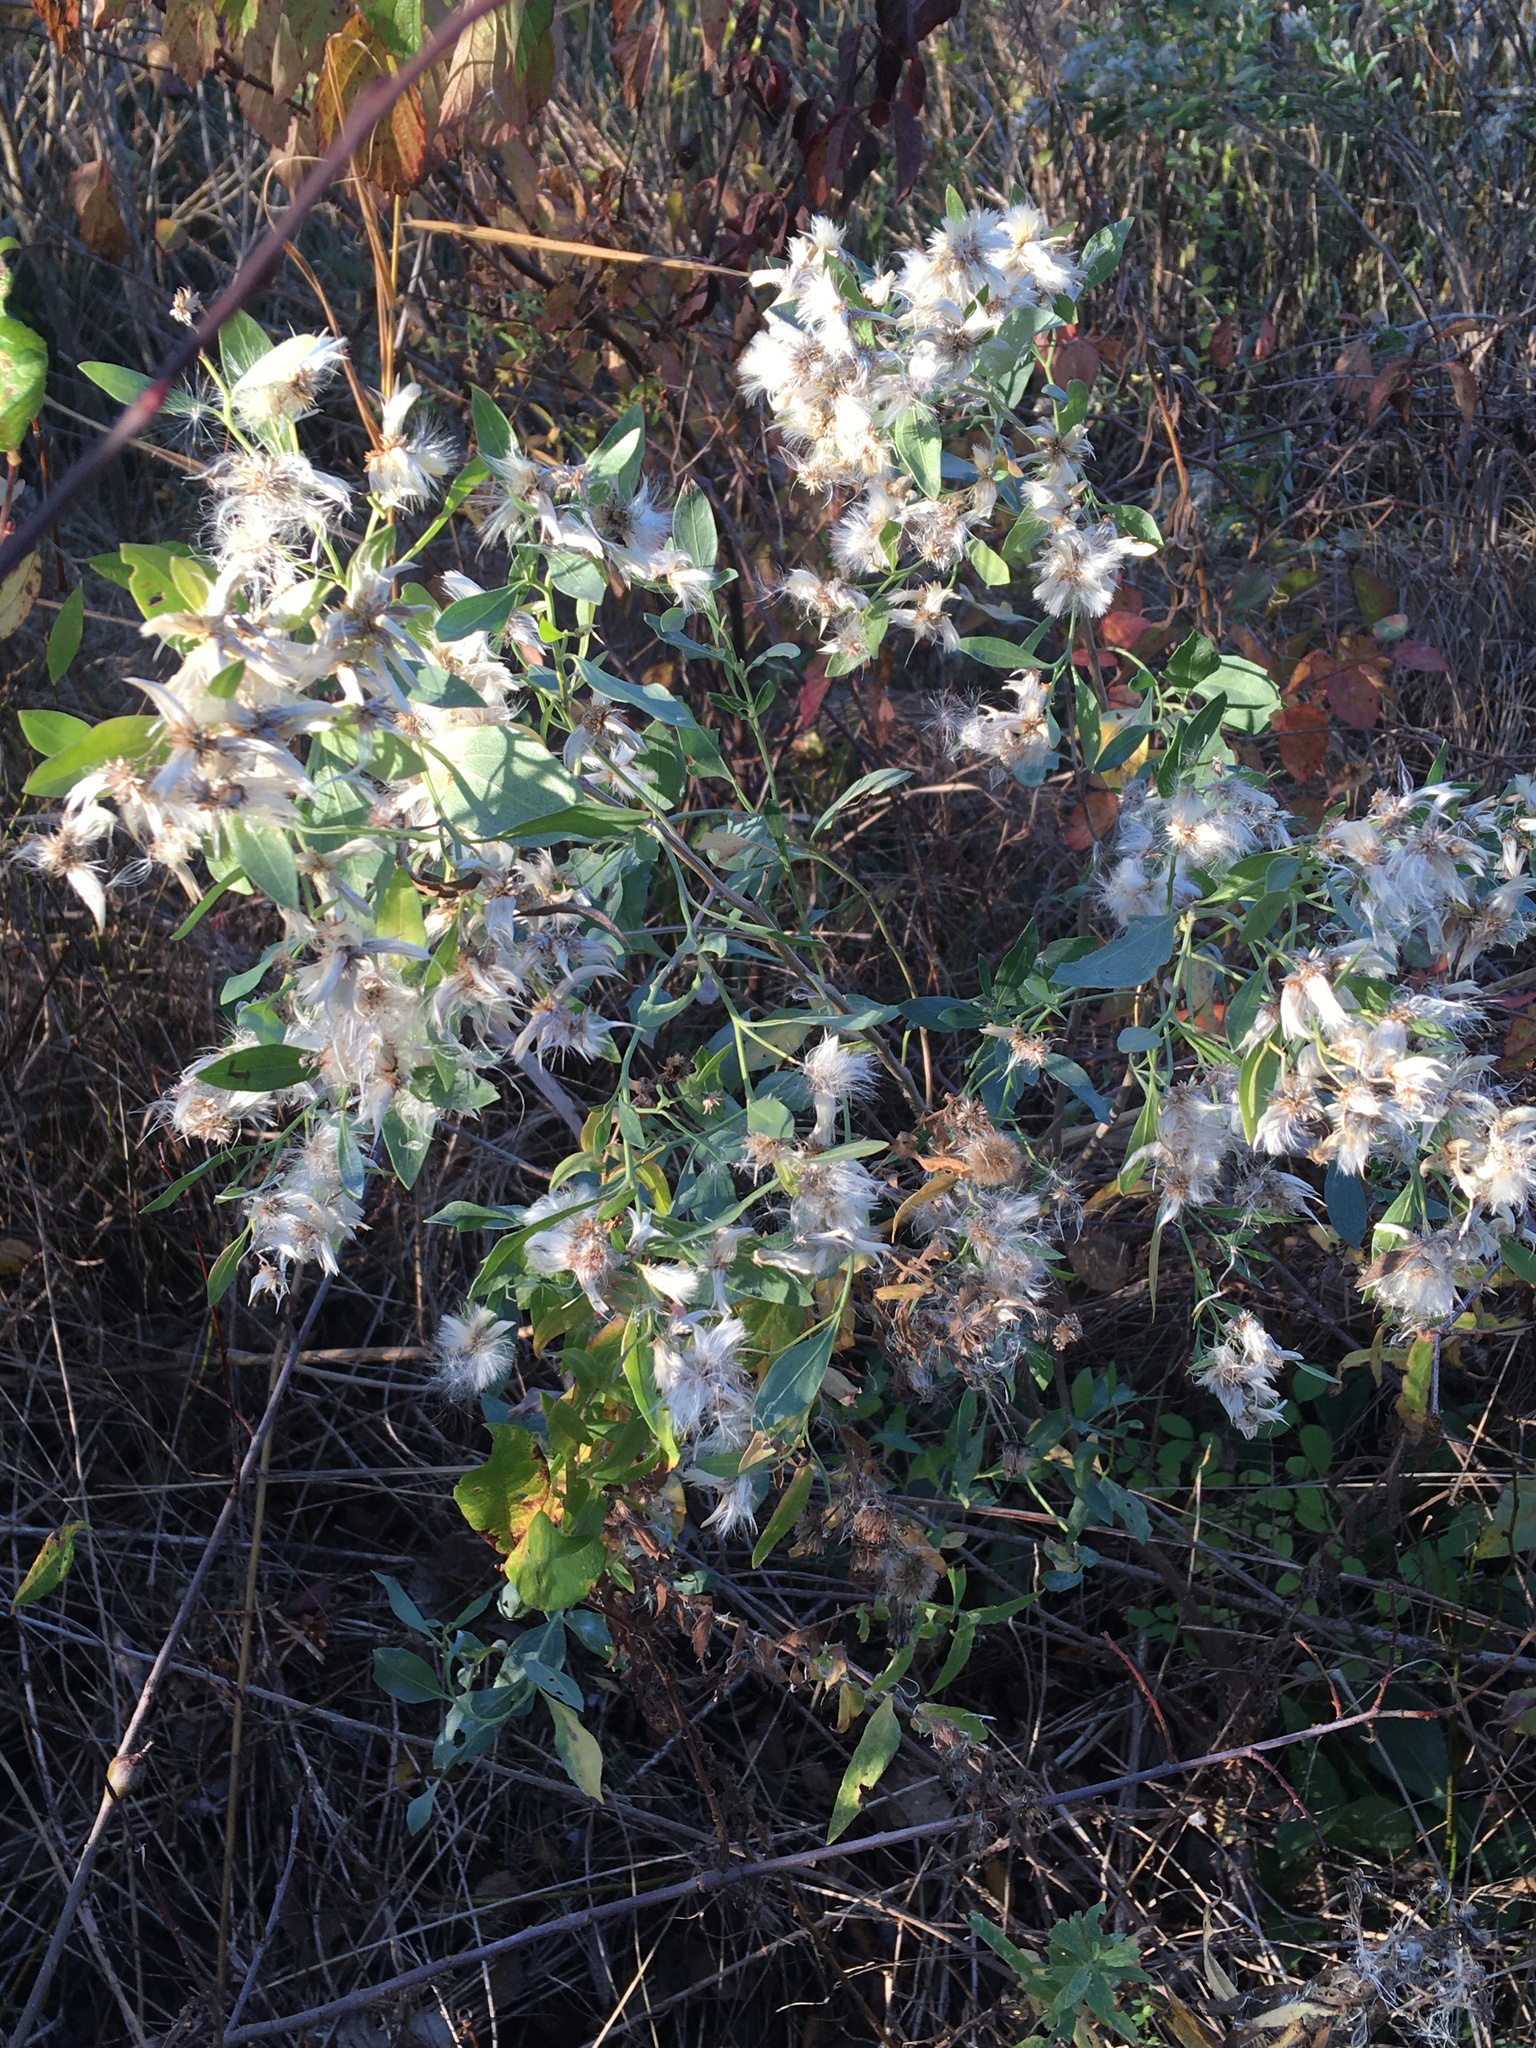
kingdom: Plantae
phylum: Tracheophyta
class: Magnoliopsida
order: Asterales
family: Asteraceae
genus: Baccharis
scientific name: Baccharis halimifolia
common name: Eastern baccharis
